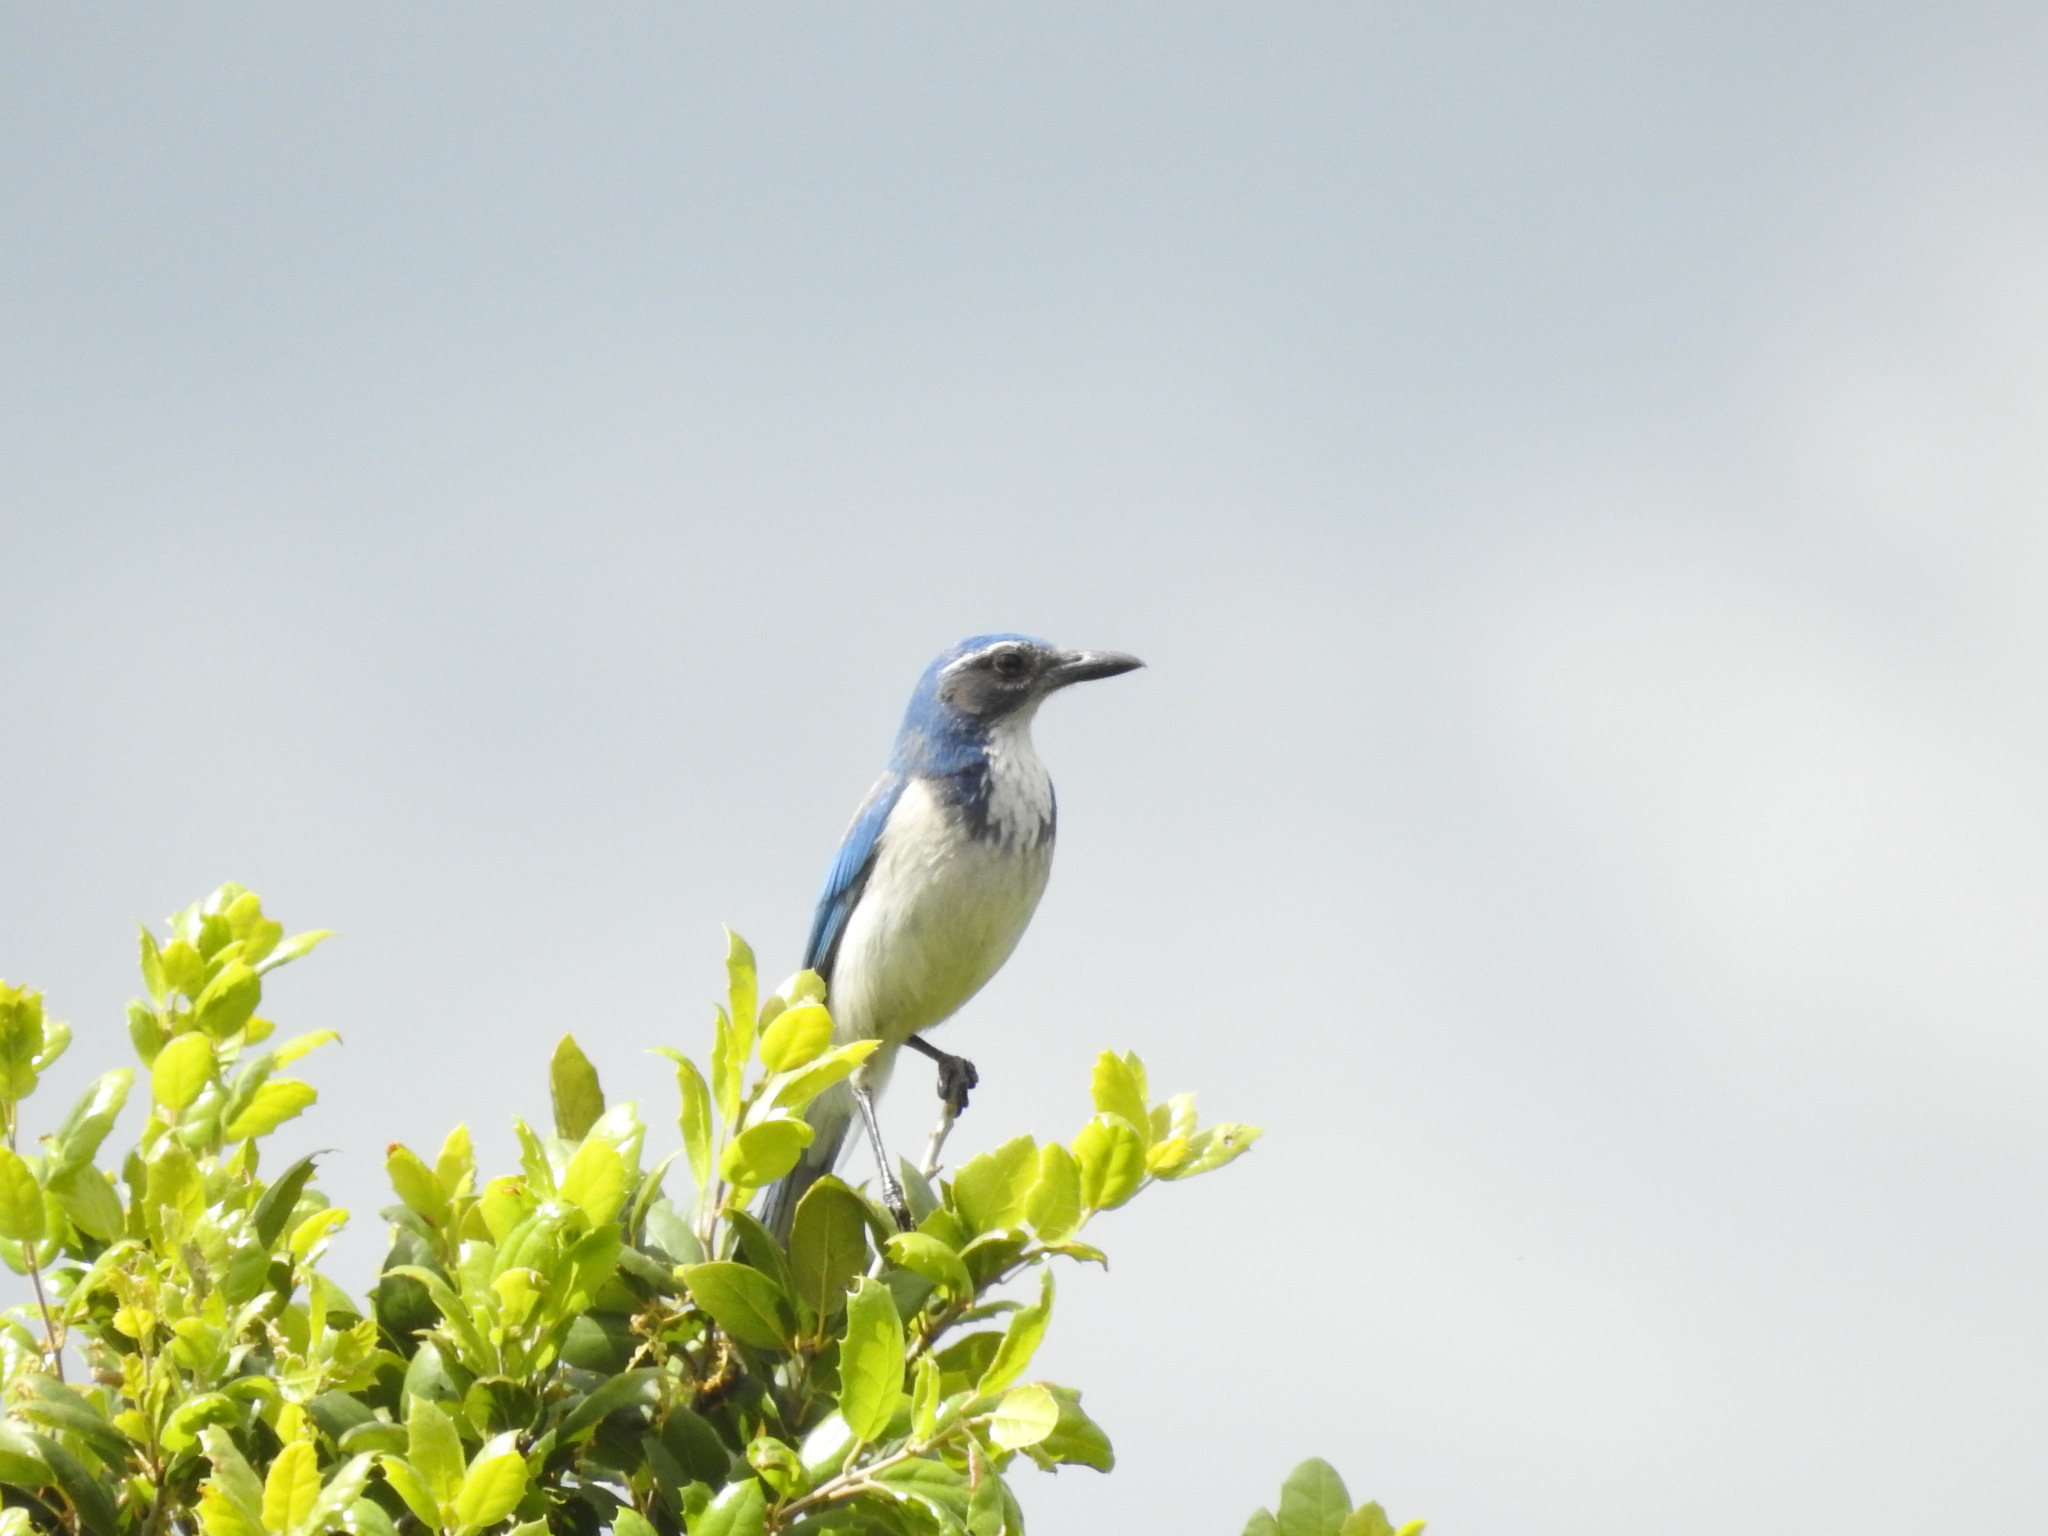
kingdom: Animalia
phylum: Chordata
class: Aves
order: Passeriformes
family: Corvidae
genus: Aphelocoma
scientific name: Aphelocoma californica
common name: California scrub-jay
